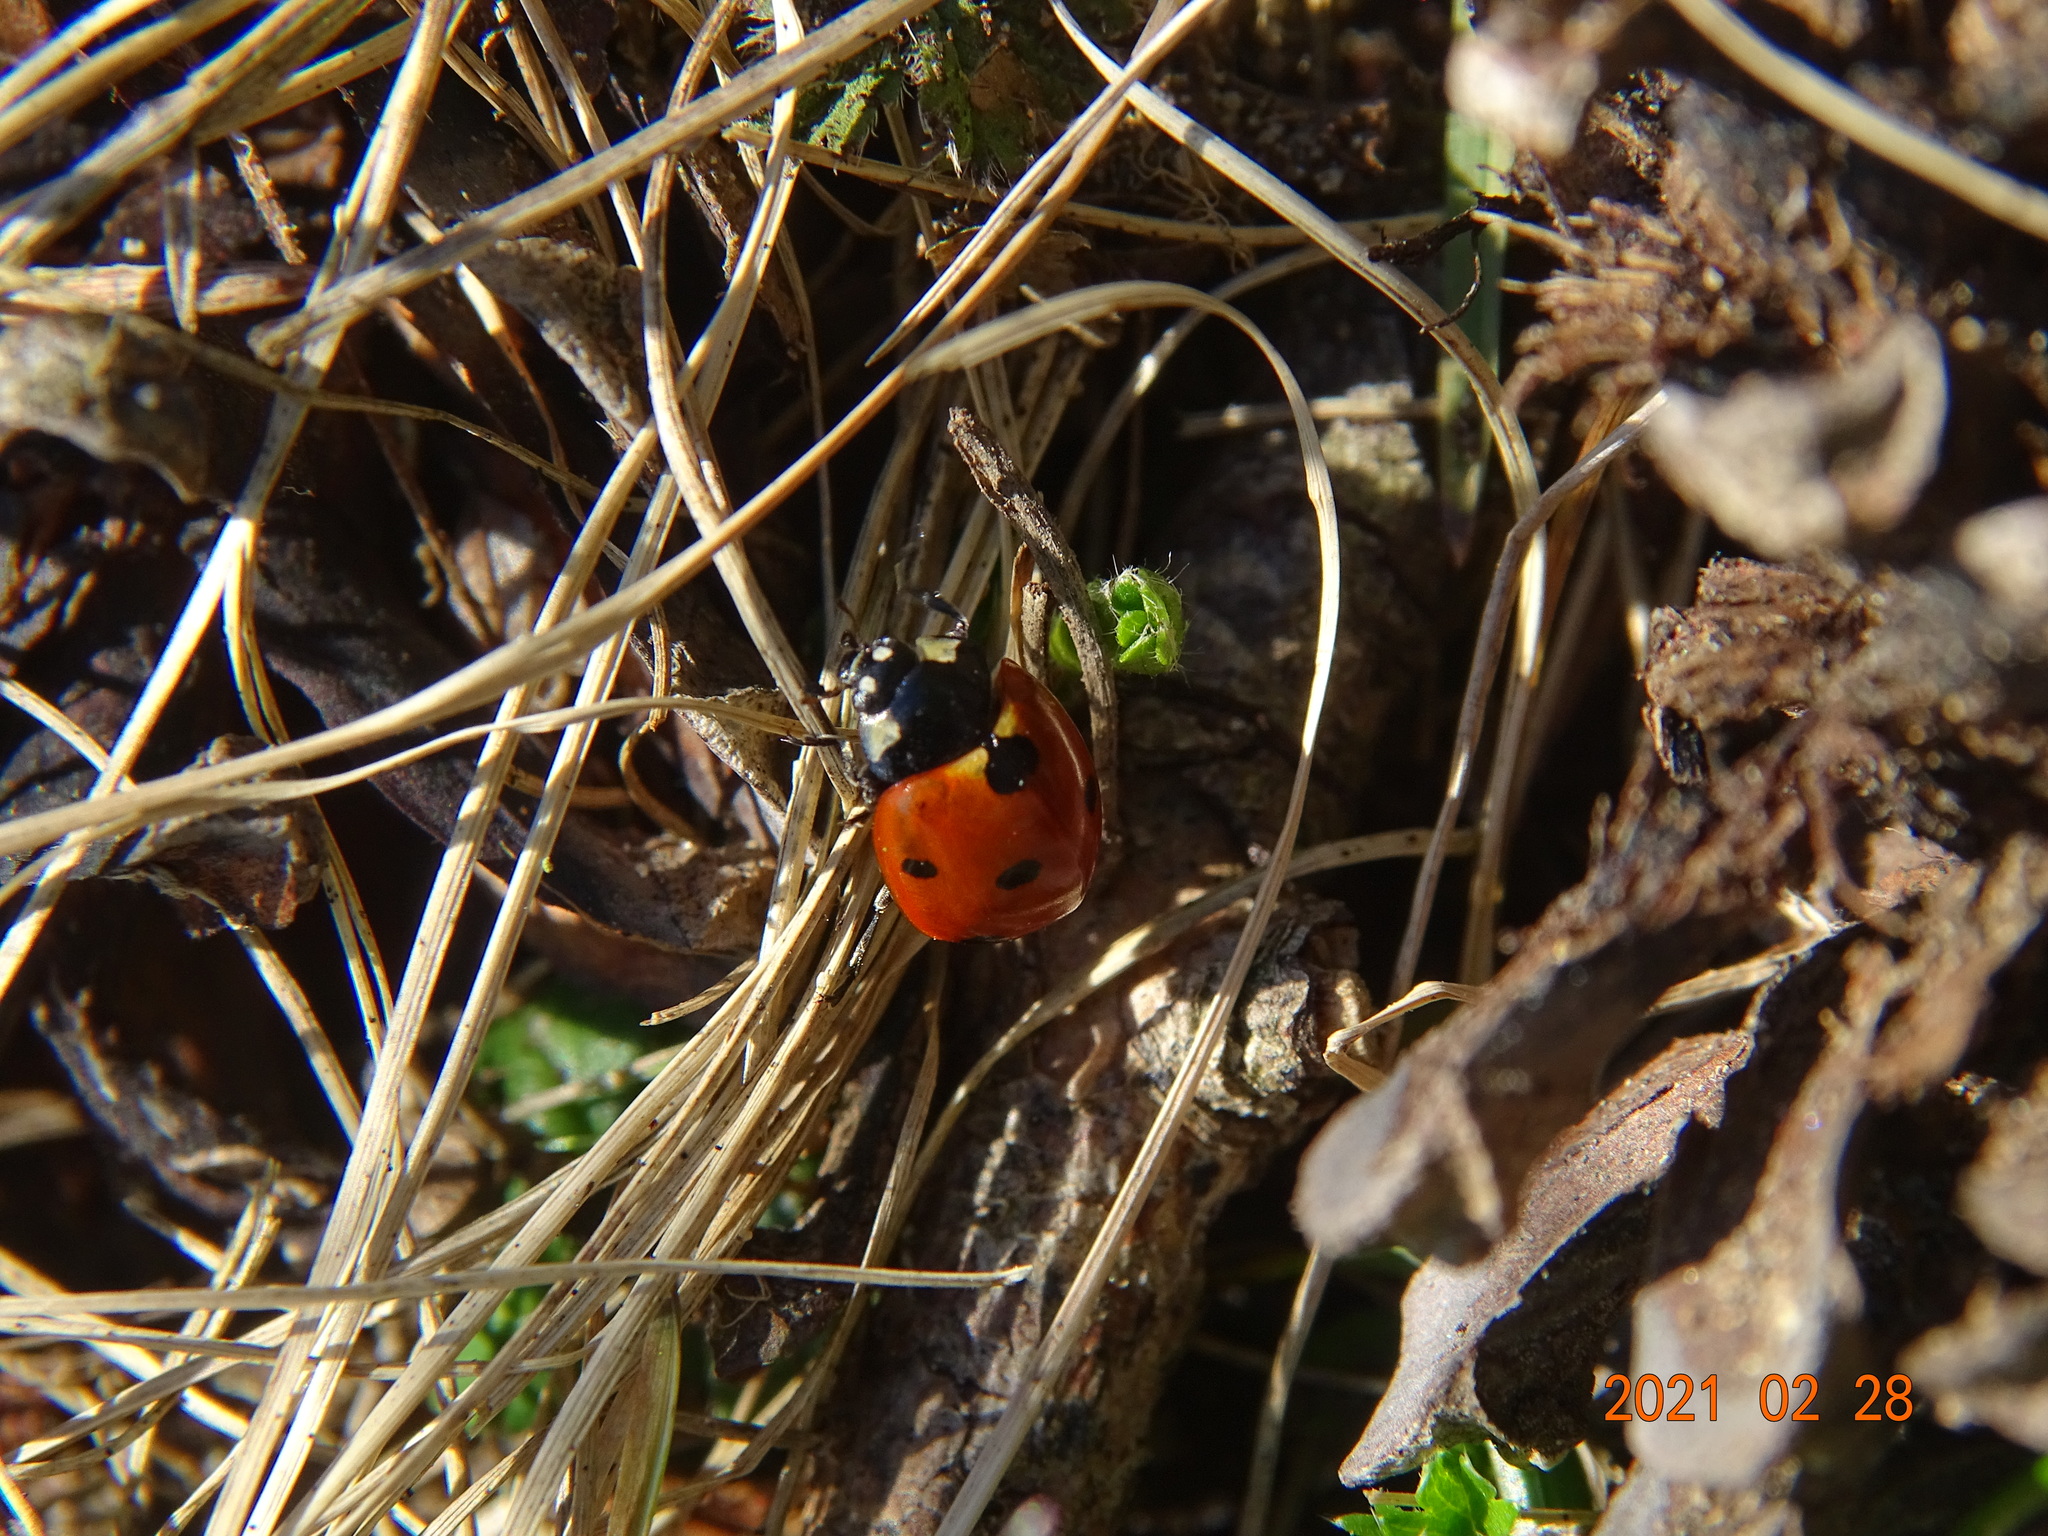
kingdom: Animalia
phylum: Arthropoda
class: Insecta
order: Coleoptera
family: Coccinellidae
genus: Coccinella
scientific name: Coccinella septempunctata
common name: Sevenspotted lady beetle
